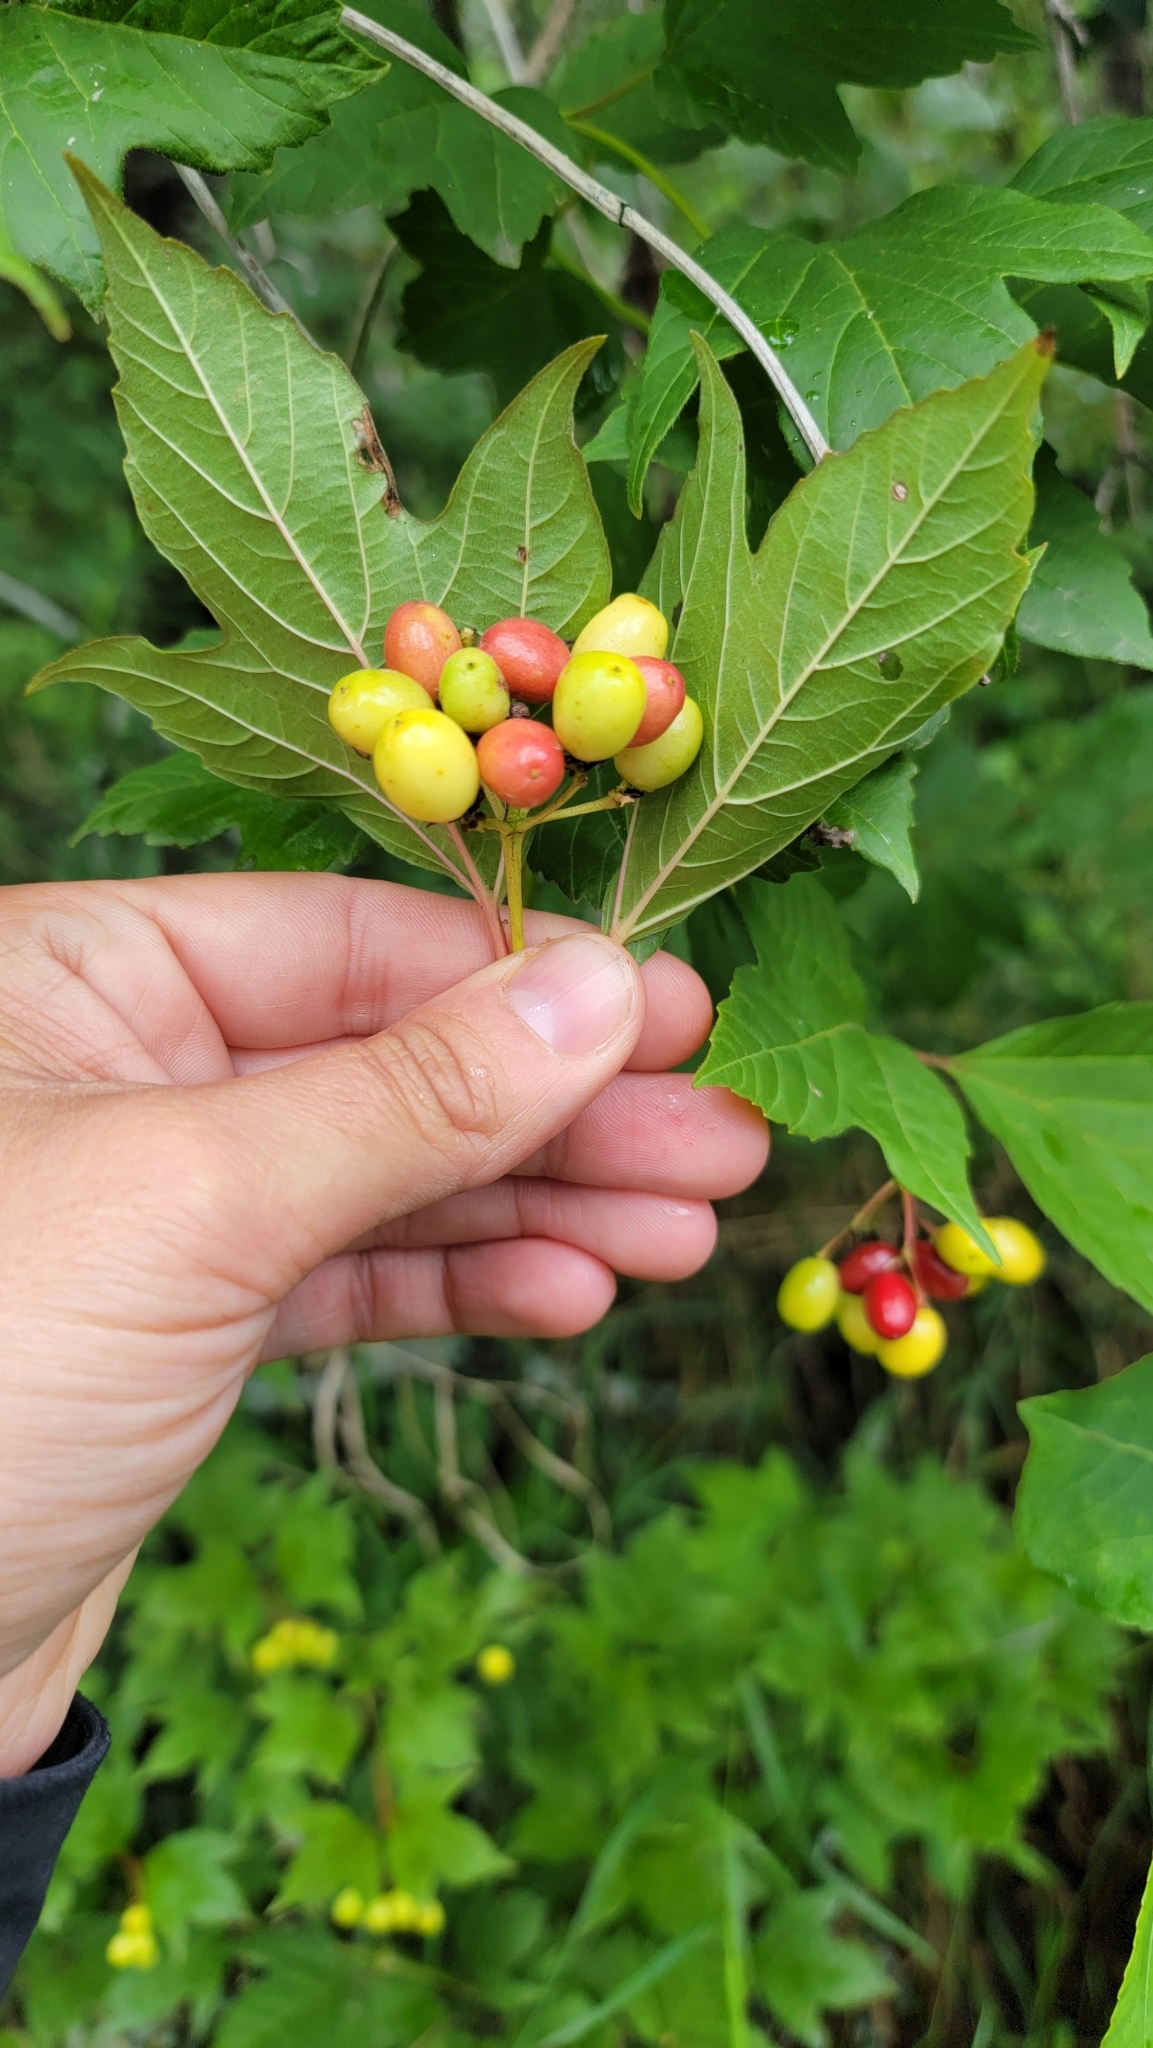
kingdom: Plantae
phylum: Tracheophyta
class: Magnoliopsida
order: Dipsacales
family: Viburnaceae
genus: Viburnum
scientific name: Viburnum opulus
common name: Guelder-rose
